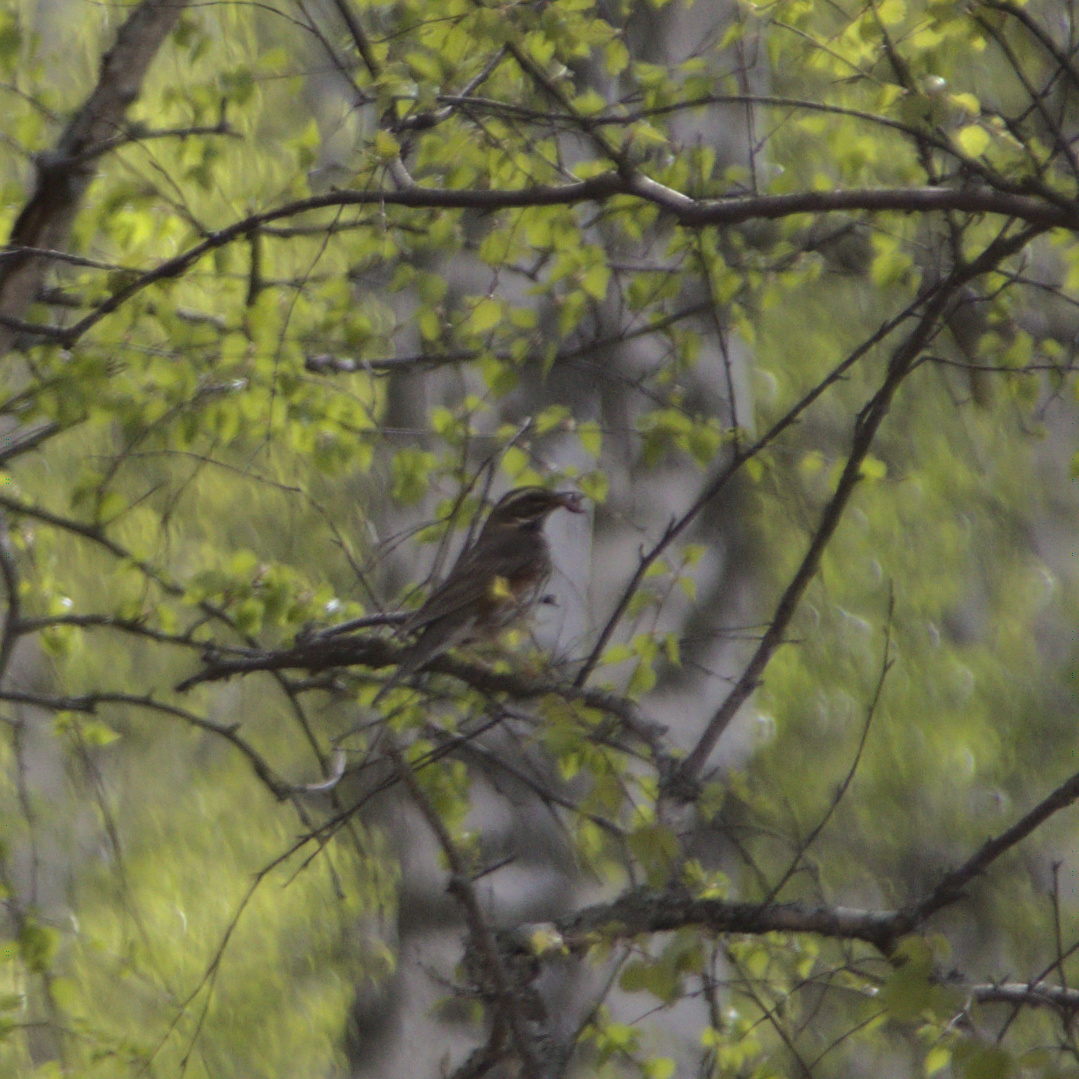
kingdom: Animalia
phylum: Chordata
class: Aves
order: Passeriformes
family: Turdidae
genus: Turdus
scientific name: Turdus iliacus
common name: Redwing
